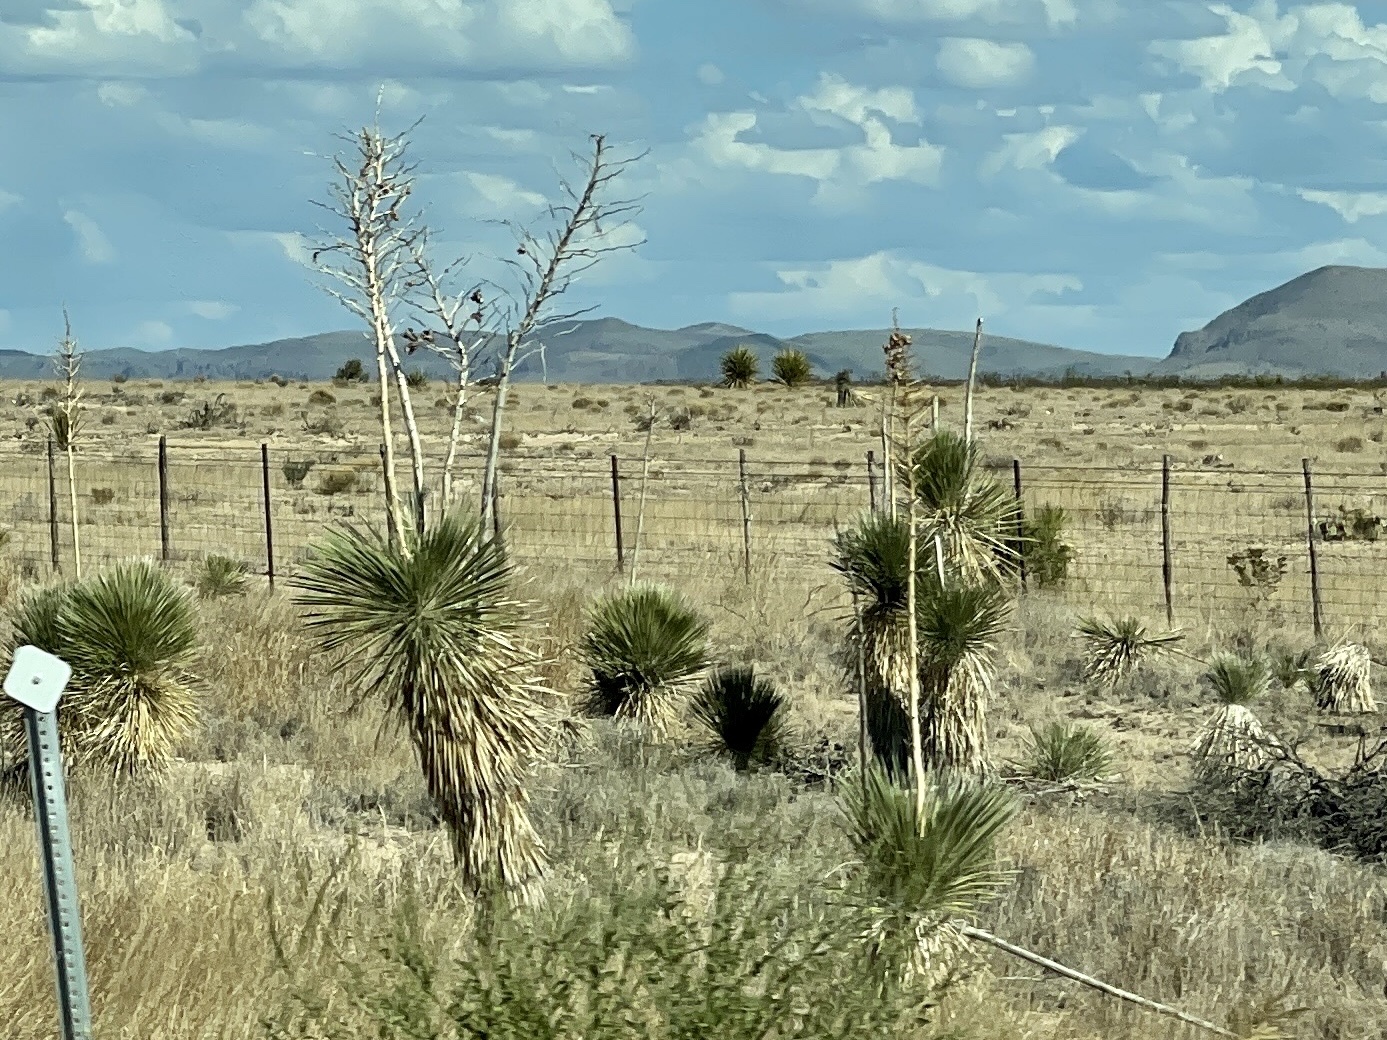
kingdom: Plantae
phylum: Tracheophyta
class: Liliopsida
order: Asparagales
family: Asparagaceae
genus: Yucca
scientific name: Yucca elata
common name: Palmella
